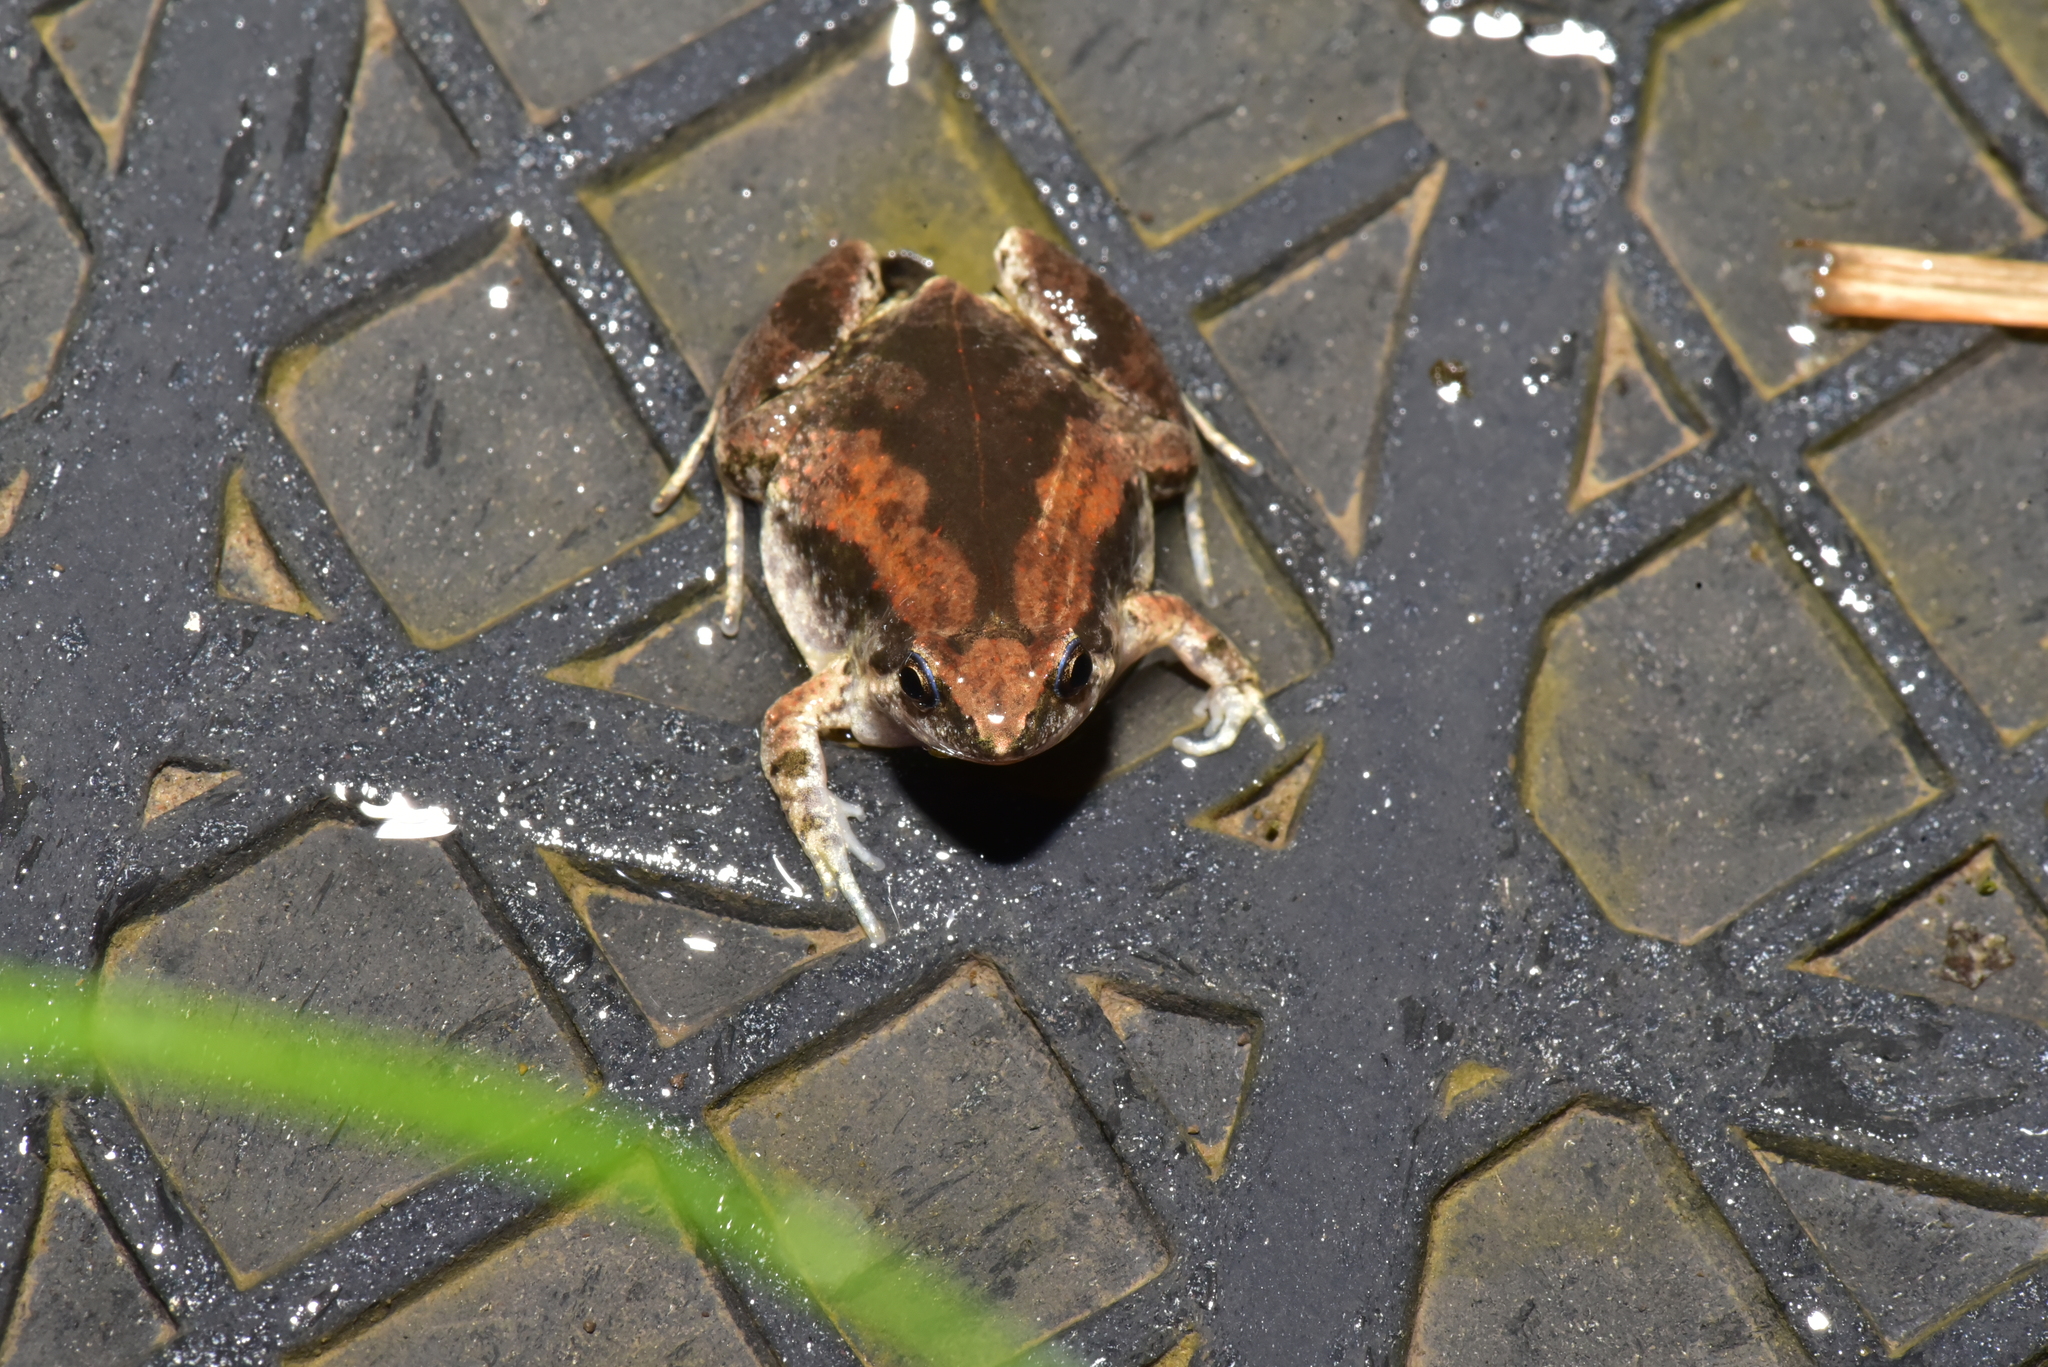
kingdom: Animalia
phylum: Chordata
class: Amphibia
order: Anura
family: Microhylidae
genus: Microhyla
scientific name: Microhyla fissipes
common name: Ornate narrow-mouthed frog
